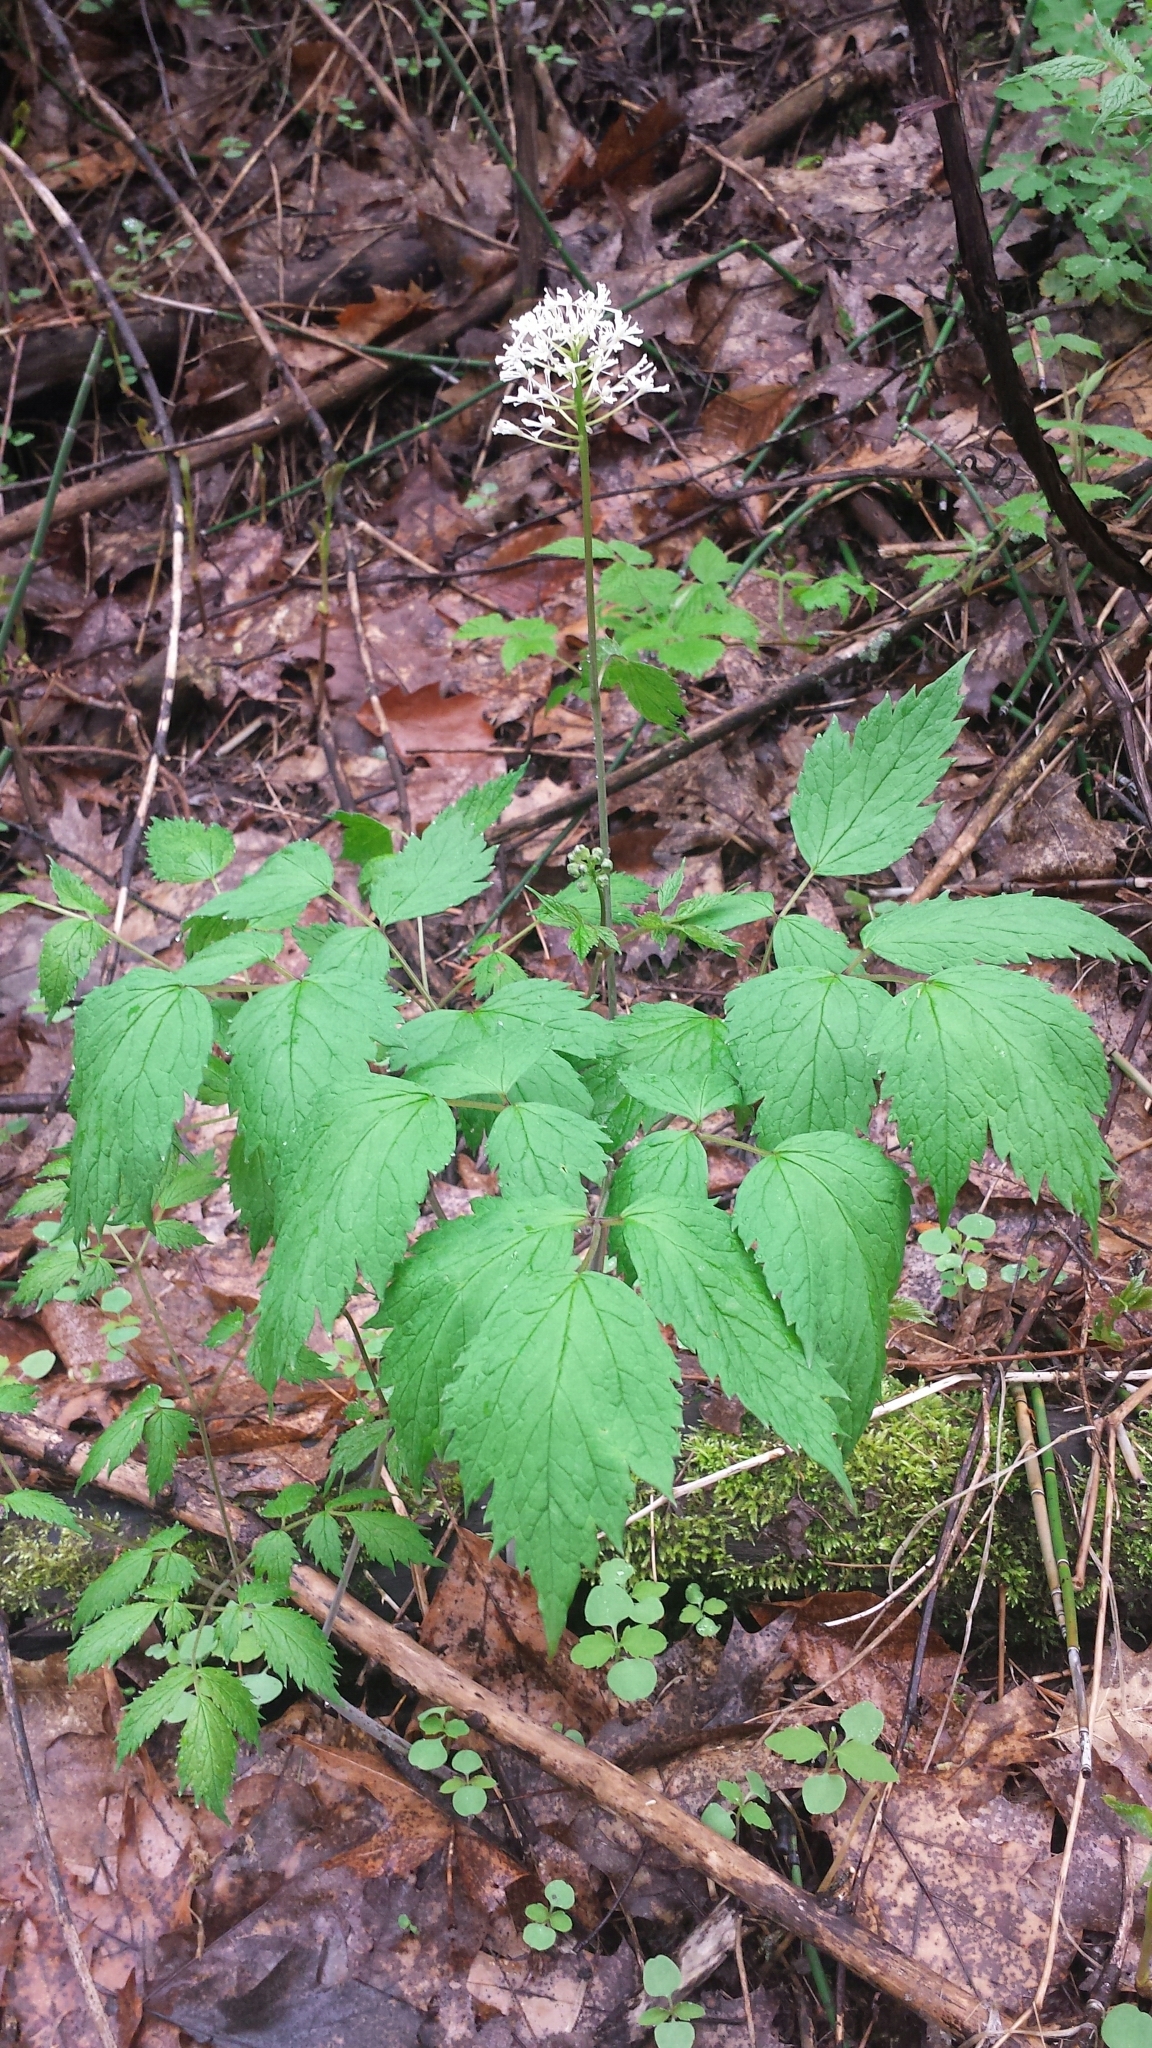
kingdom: Plantae
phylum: Tracheophyta
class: Magnoliopsida
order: Ranunculales
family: Ranunculaceae
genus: Actaea
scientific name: Actaea rubra
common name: Red baneberry
